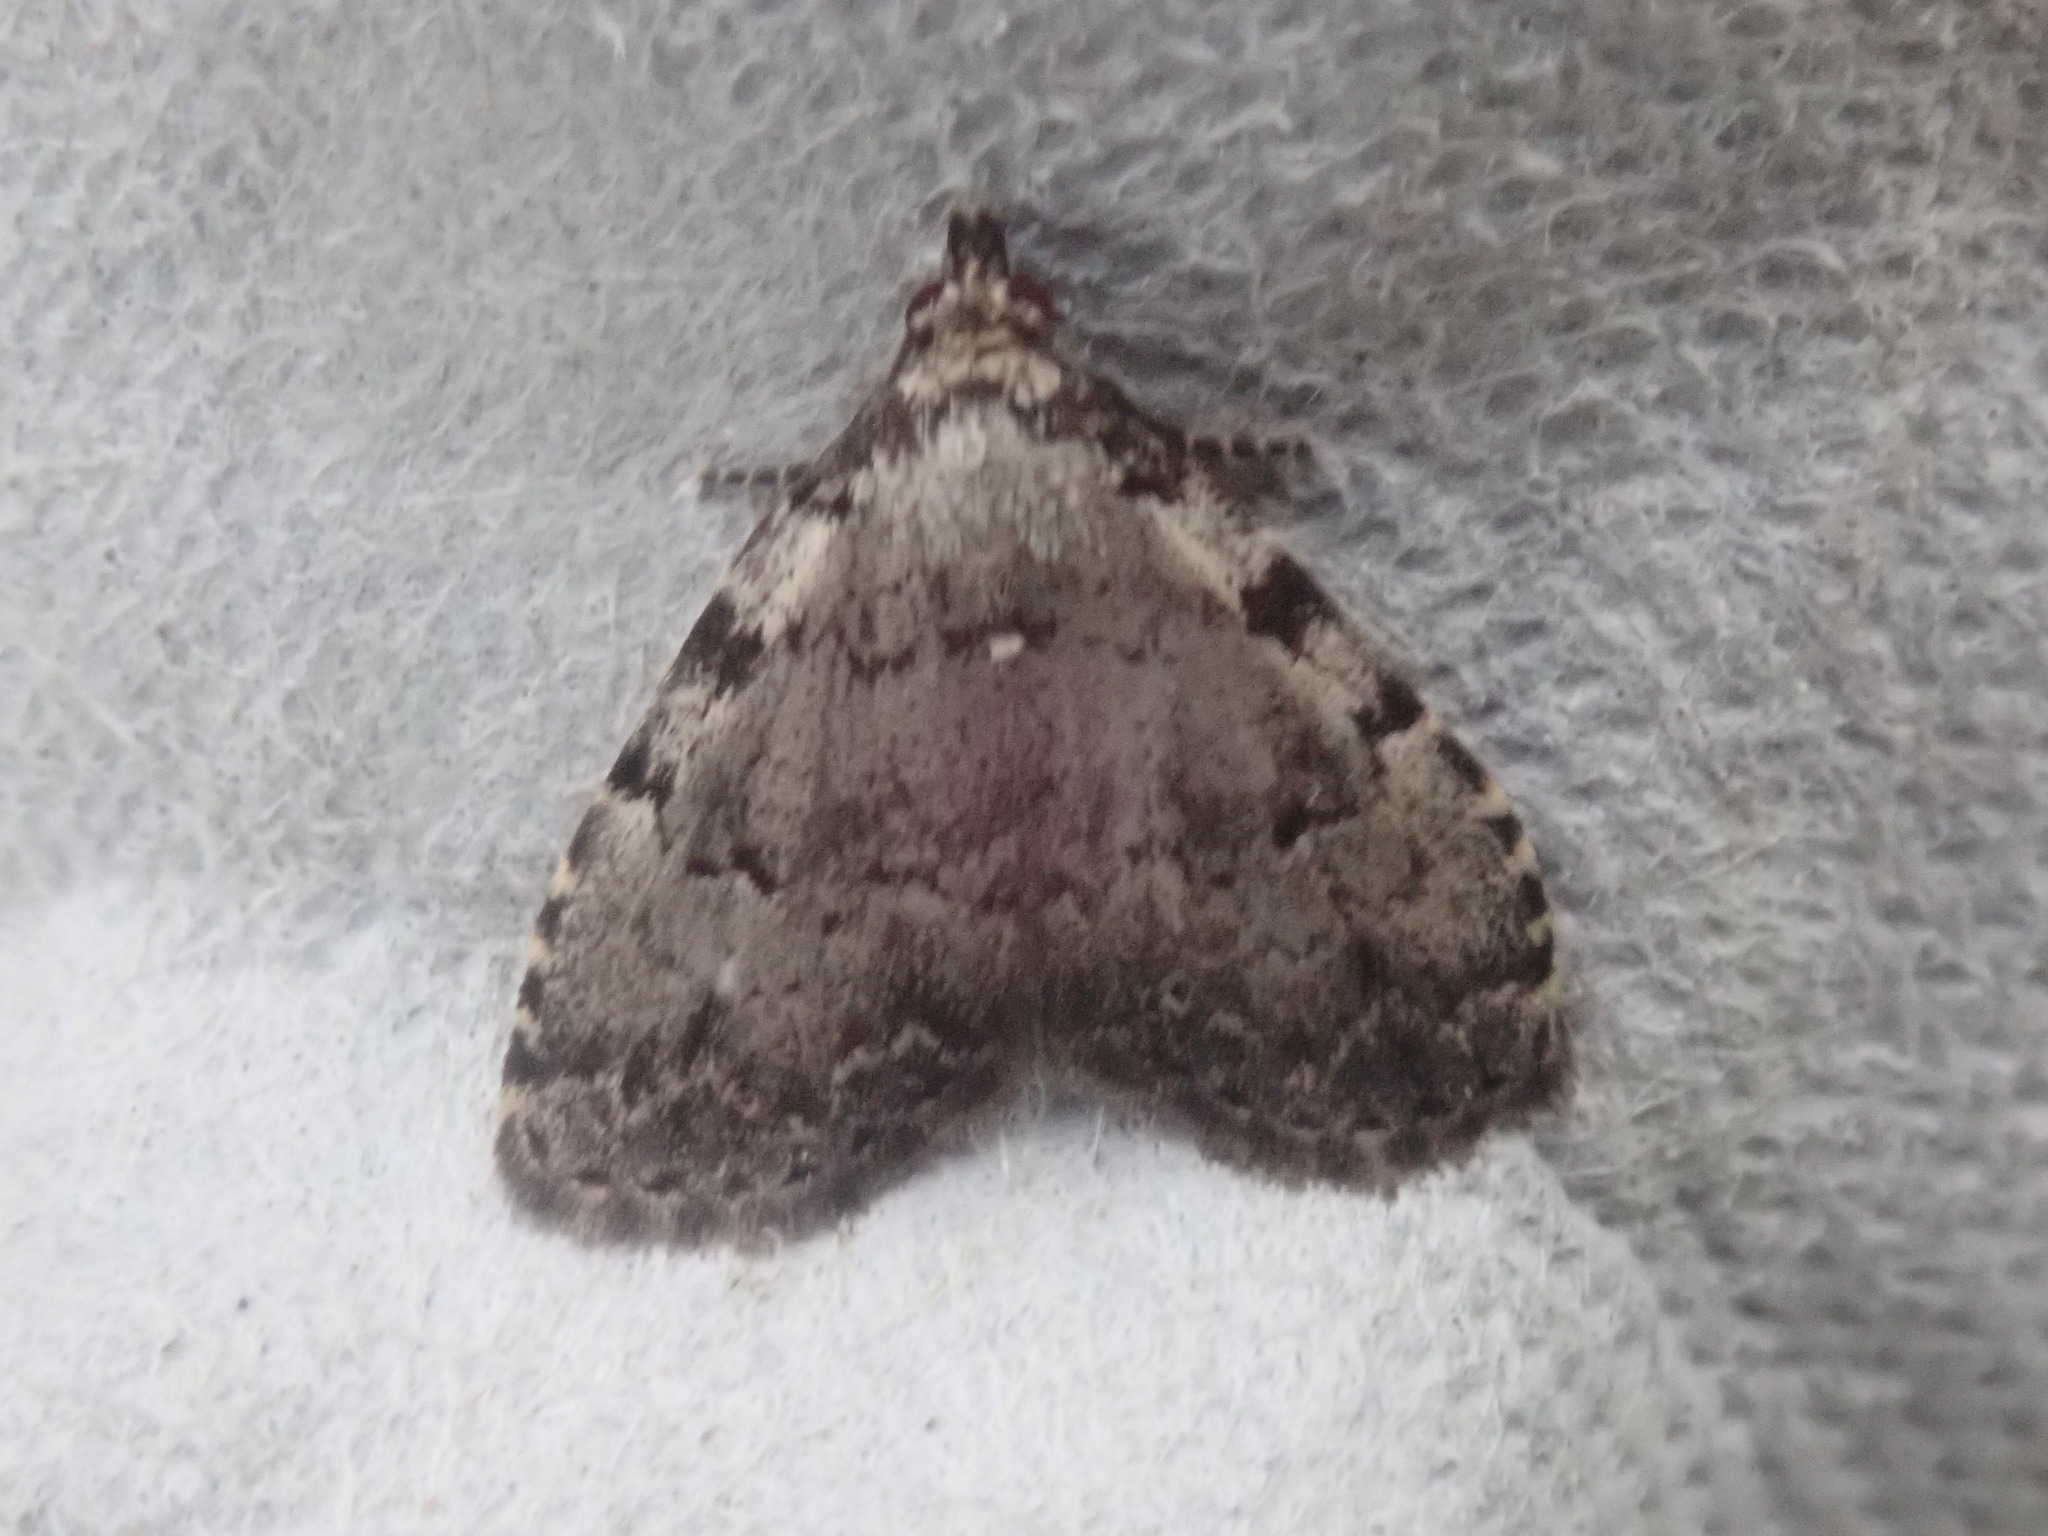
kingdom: Animalia
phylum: Arthropoda
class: Insecta
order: Lepidoptera
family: Erebidae
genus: Dyspyralis
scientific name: Dyspyralis puncticosta
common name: Spot-edged dyspyralis moth
